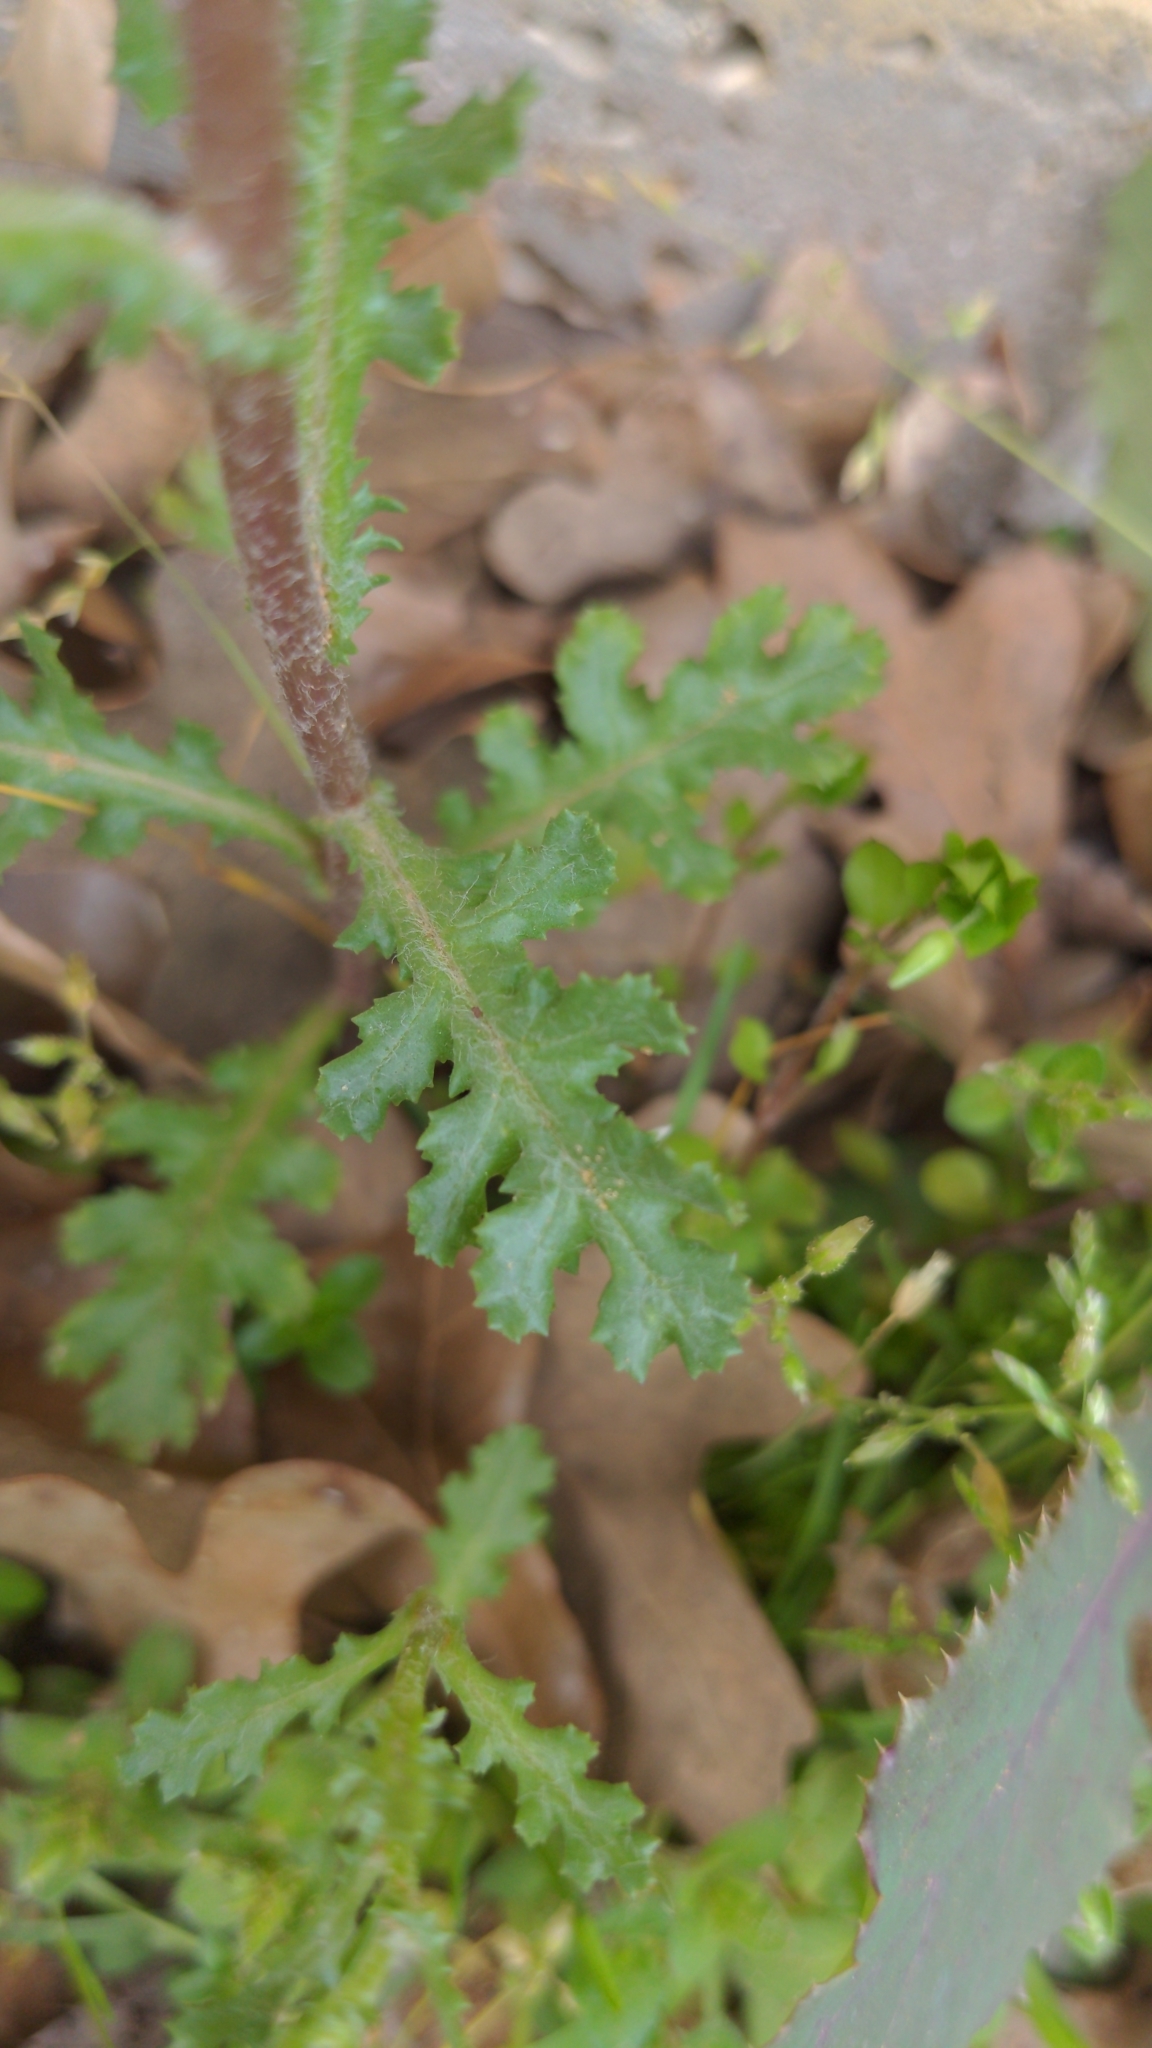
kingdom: Plantae
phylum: Tracheophyta
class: Magnoliopsida
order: Asterales
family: Asteraceae
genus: Senecio
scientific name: Senecio vulgaris
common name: Old-man-in-the-spring
